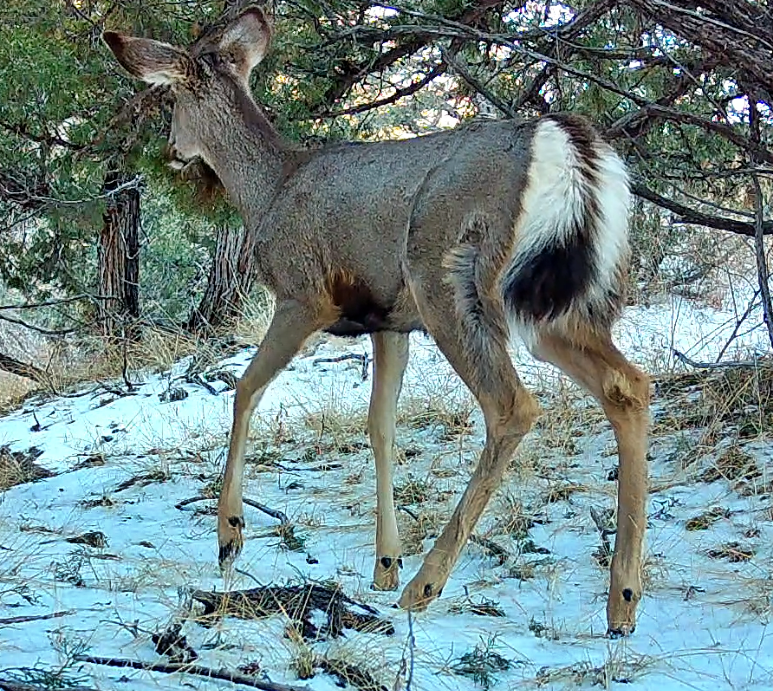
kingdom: Animalia
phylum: Chordata
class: Mammalia
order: Artiodactyla
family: Cervidae
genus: Odocoileus
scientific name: Odocoileus hemionus
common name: Mule deer
